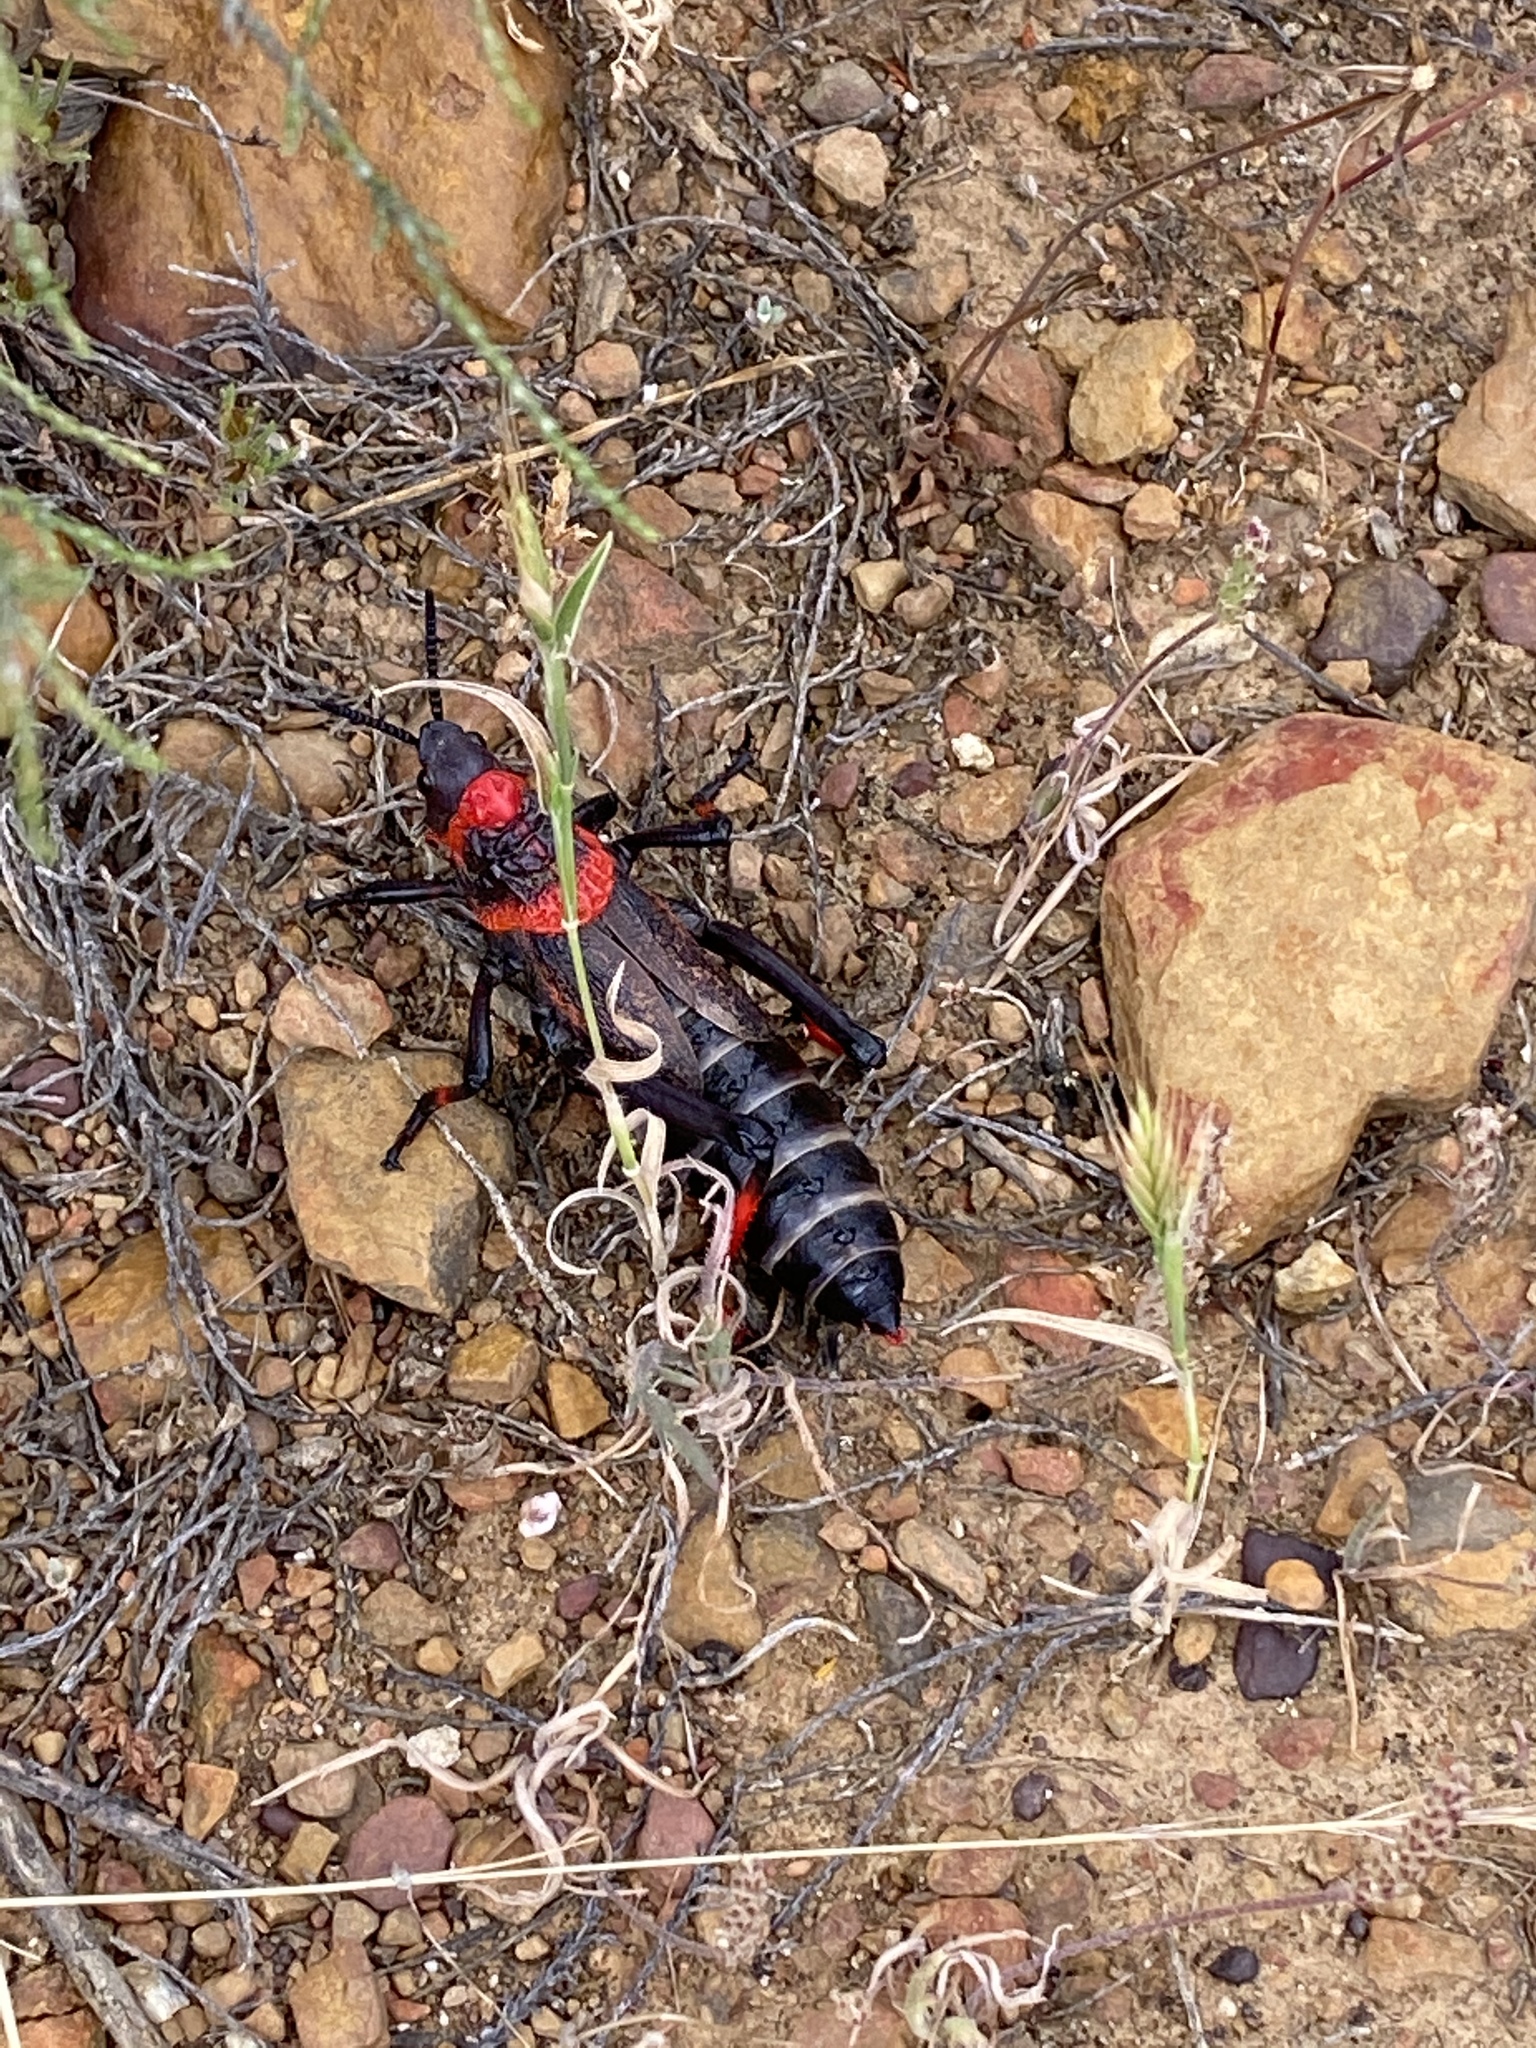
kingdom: Animalia
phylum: Arthropoda
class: Insecta
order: Orthoptera
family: Pyrgomorphidae
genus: Dictyophorus
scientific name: Dictyophorus spumans
